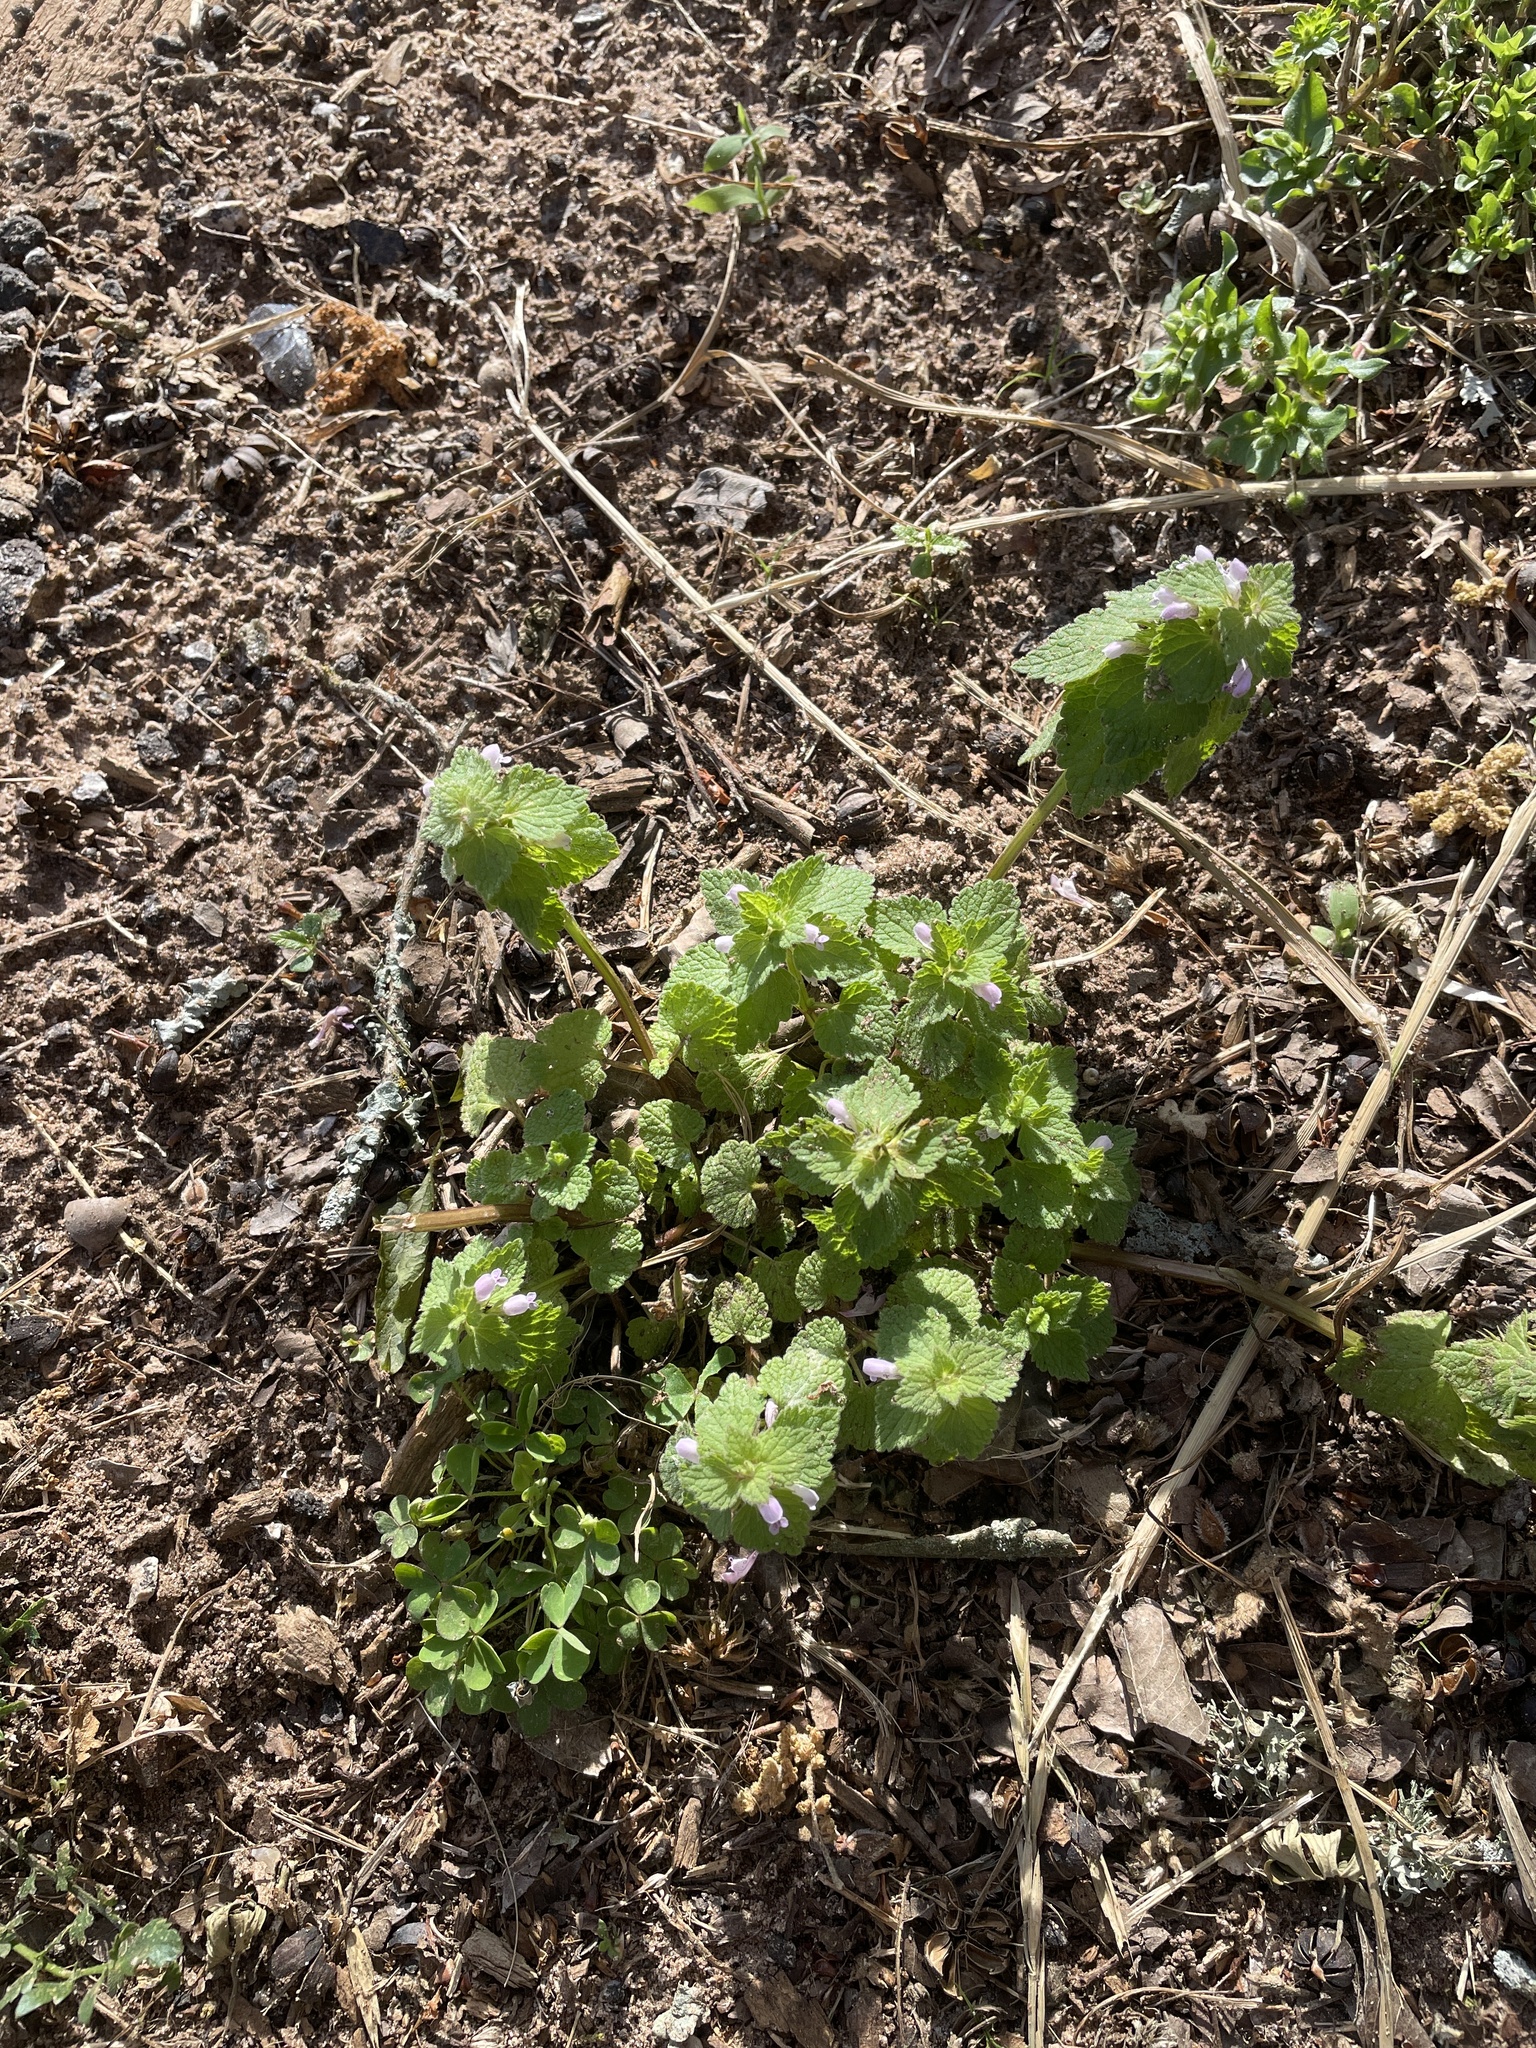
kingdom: Plantae
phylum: Tracheophyta
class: Magnoliopsida
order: Lamiales
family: Lamiaceae
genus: Lamium
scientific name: Lamium purpureum
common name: Red dead-nettle
